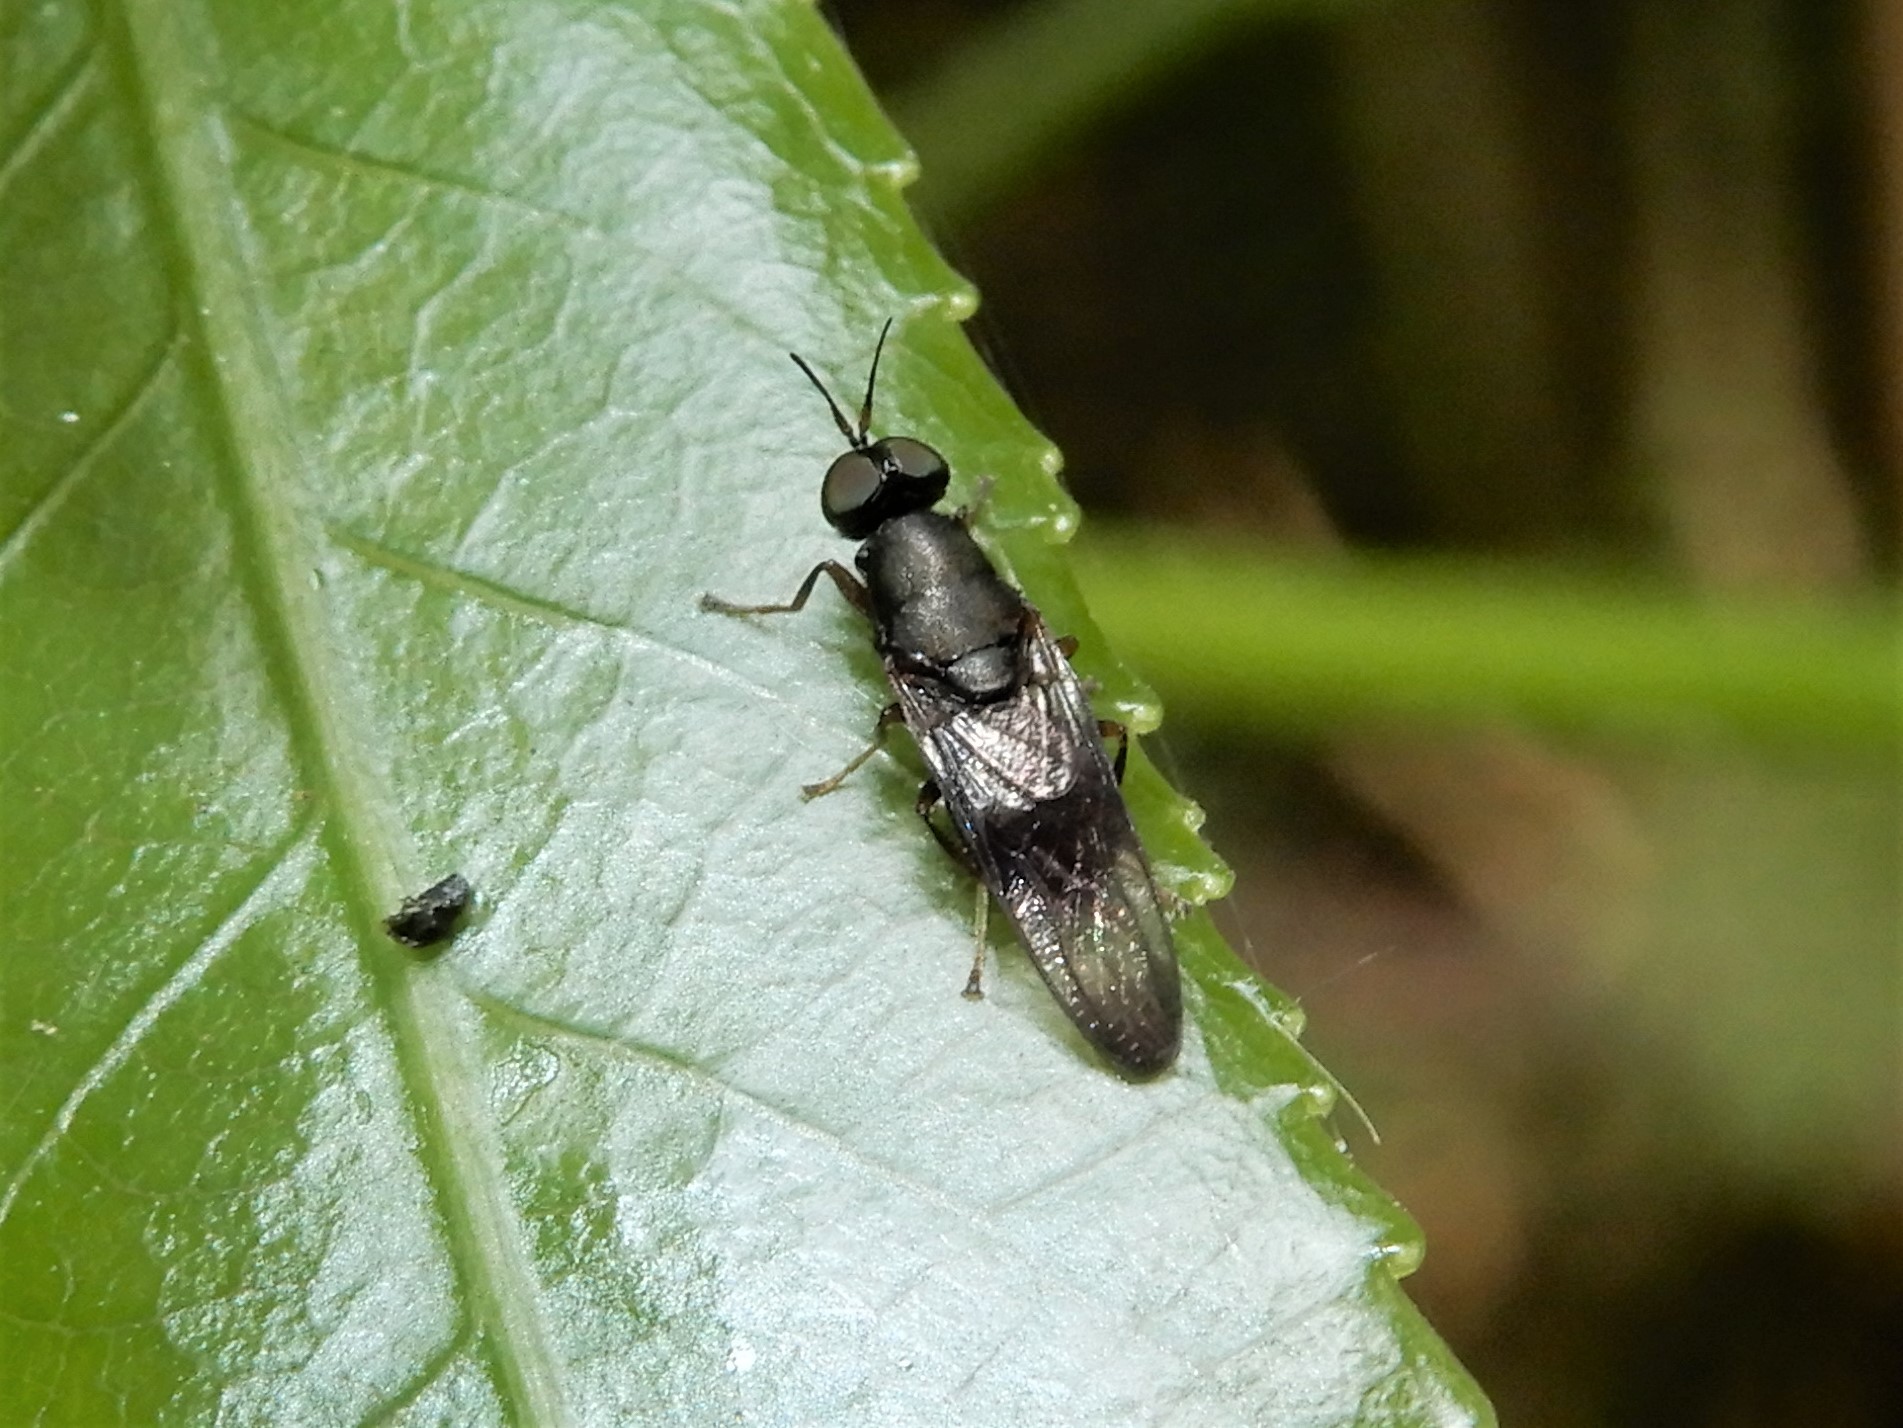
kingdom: Animalia
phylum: Arthropoda
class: Insecta
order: Diptera
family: Stratiomyidae
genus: Dysbiota
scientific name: Dysbiota peregrina
